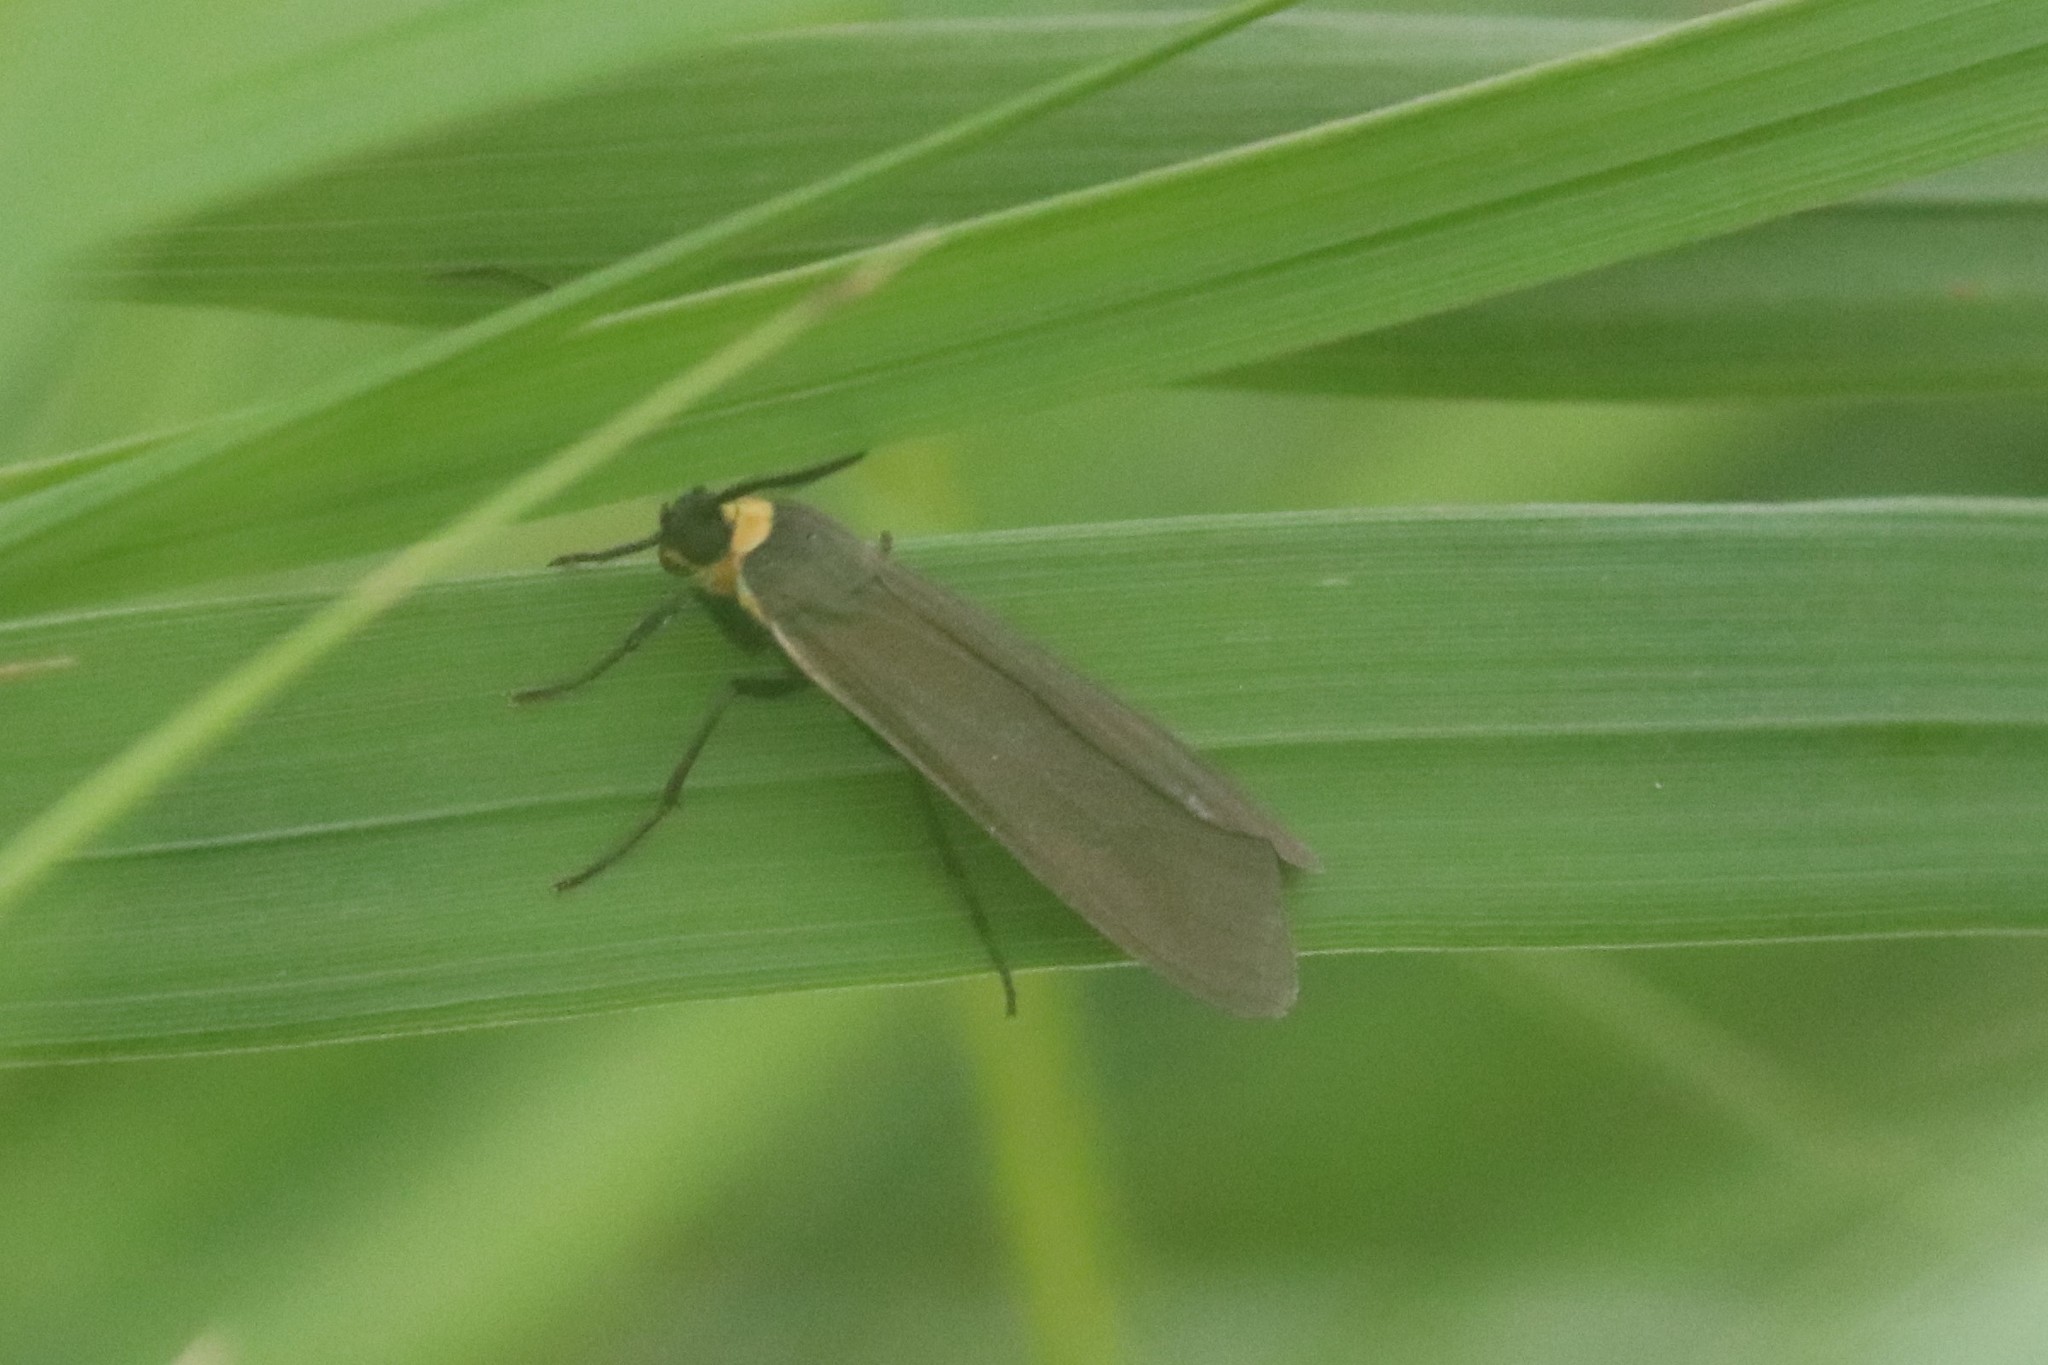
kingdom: Animalia
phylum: Arthropoda
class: Insecta
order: Lepidoptera
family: Erebidae
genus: Cisseps
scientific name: Cisseps fulvicollis
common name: Yellow-collared scape moth
